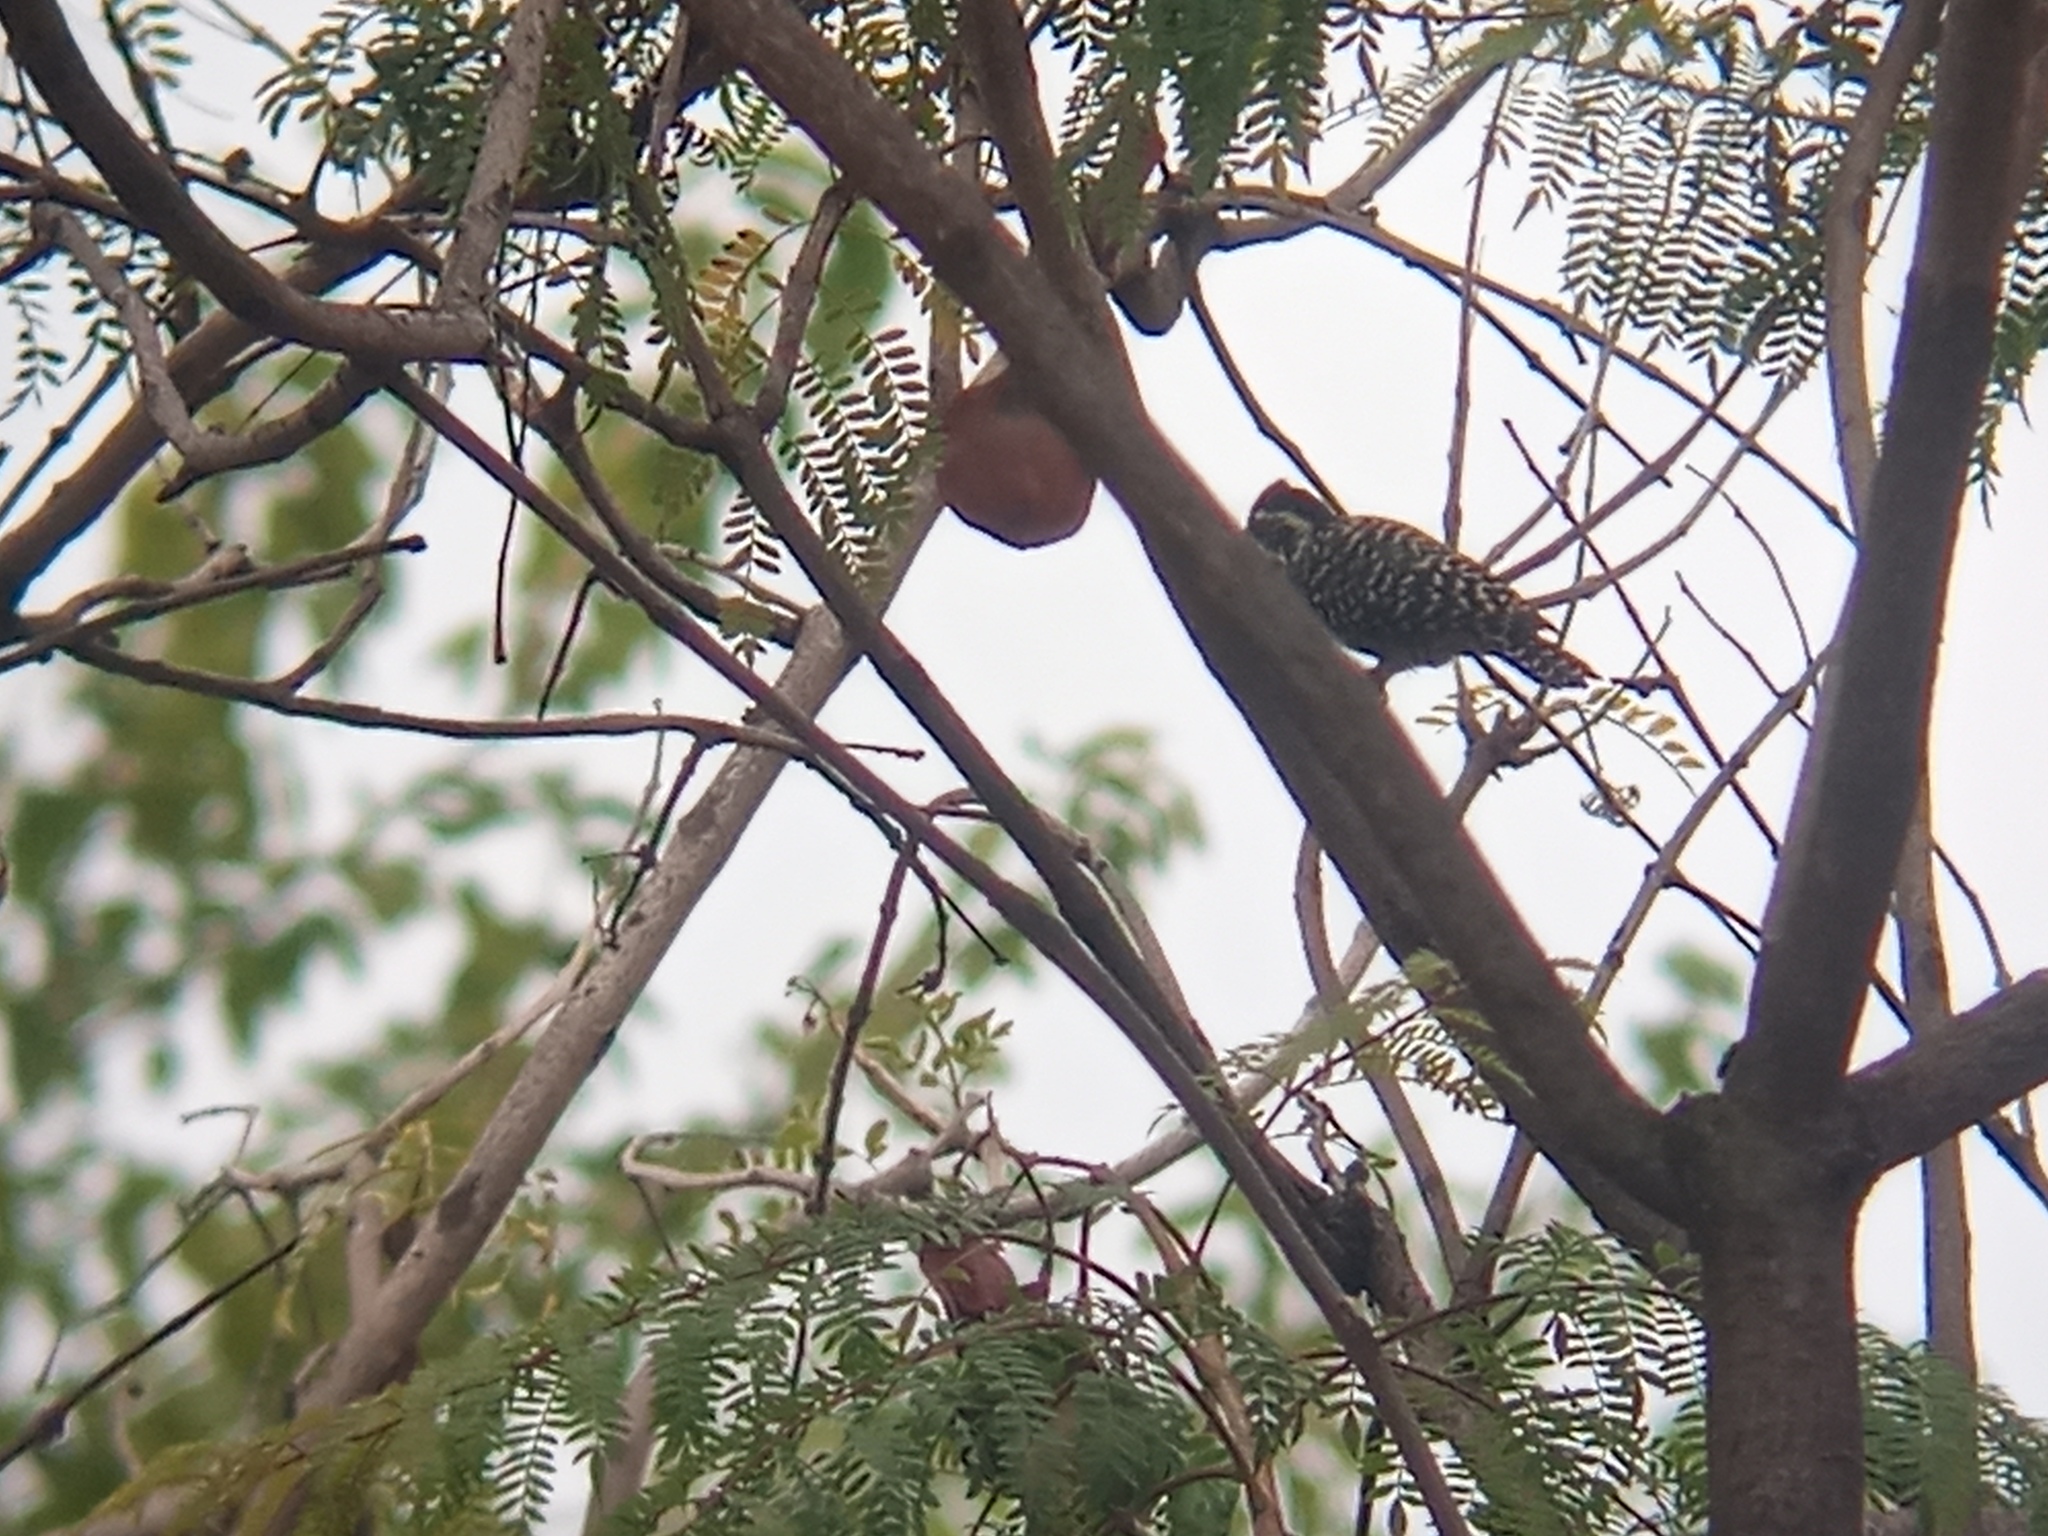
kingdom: Animalia
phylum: Chordata
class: Aves
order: Piciformes
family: Picidae
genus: Veniliornis
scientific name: Veniliornis mixtus
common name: Checkered woodpecker
